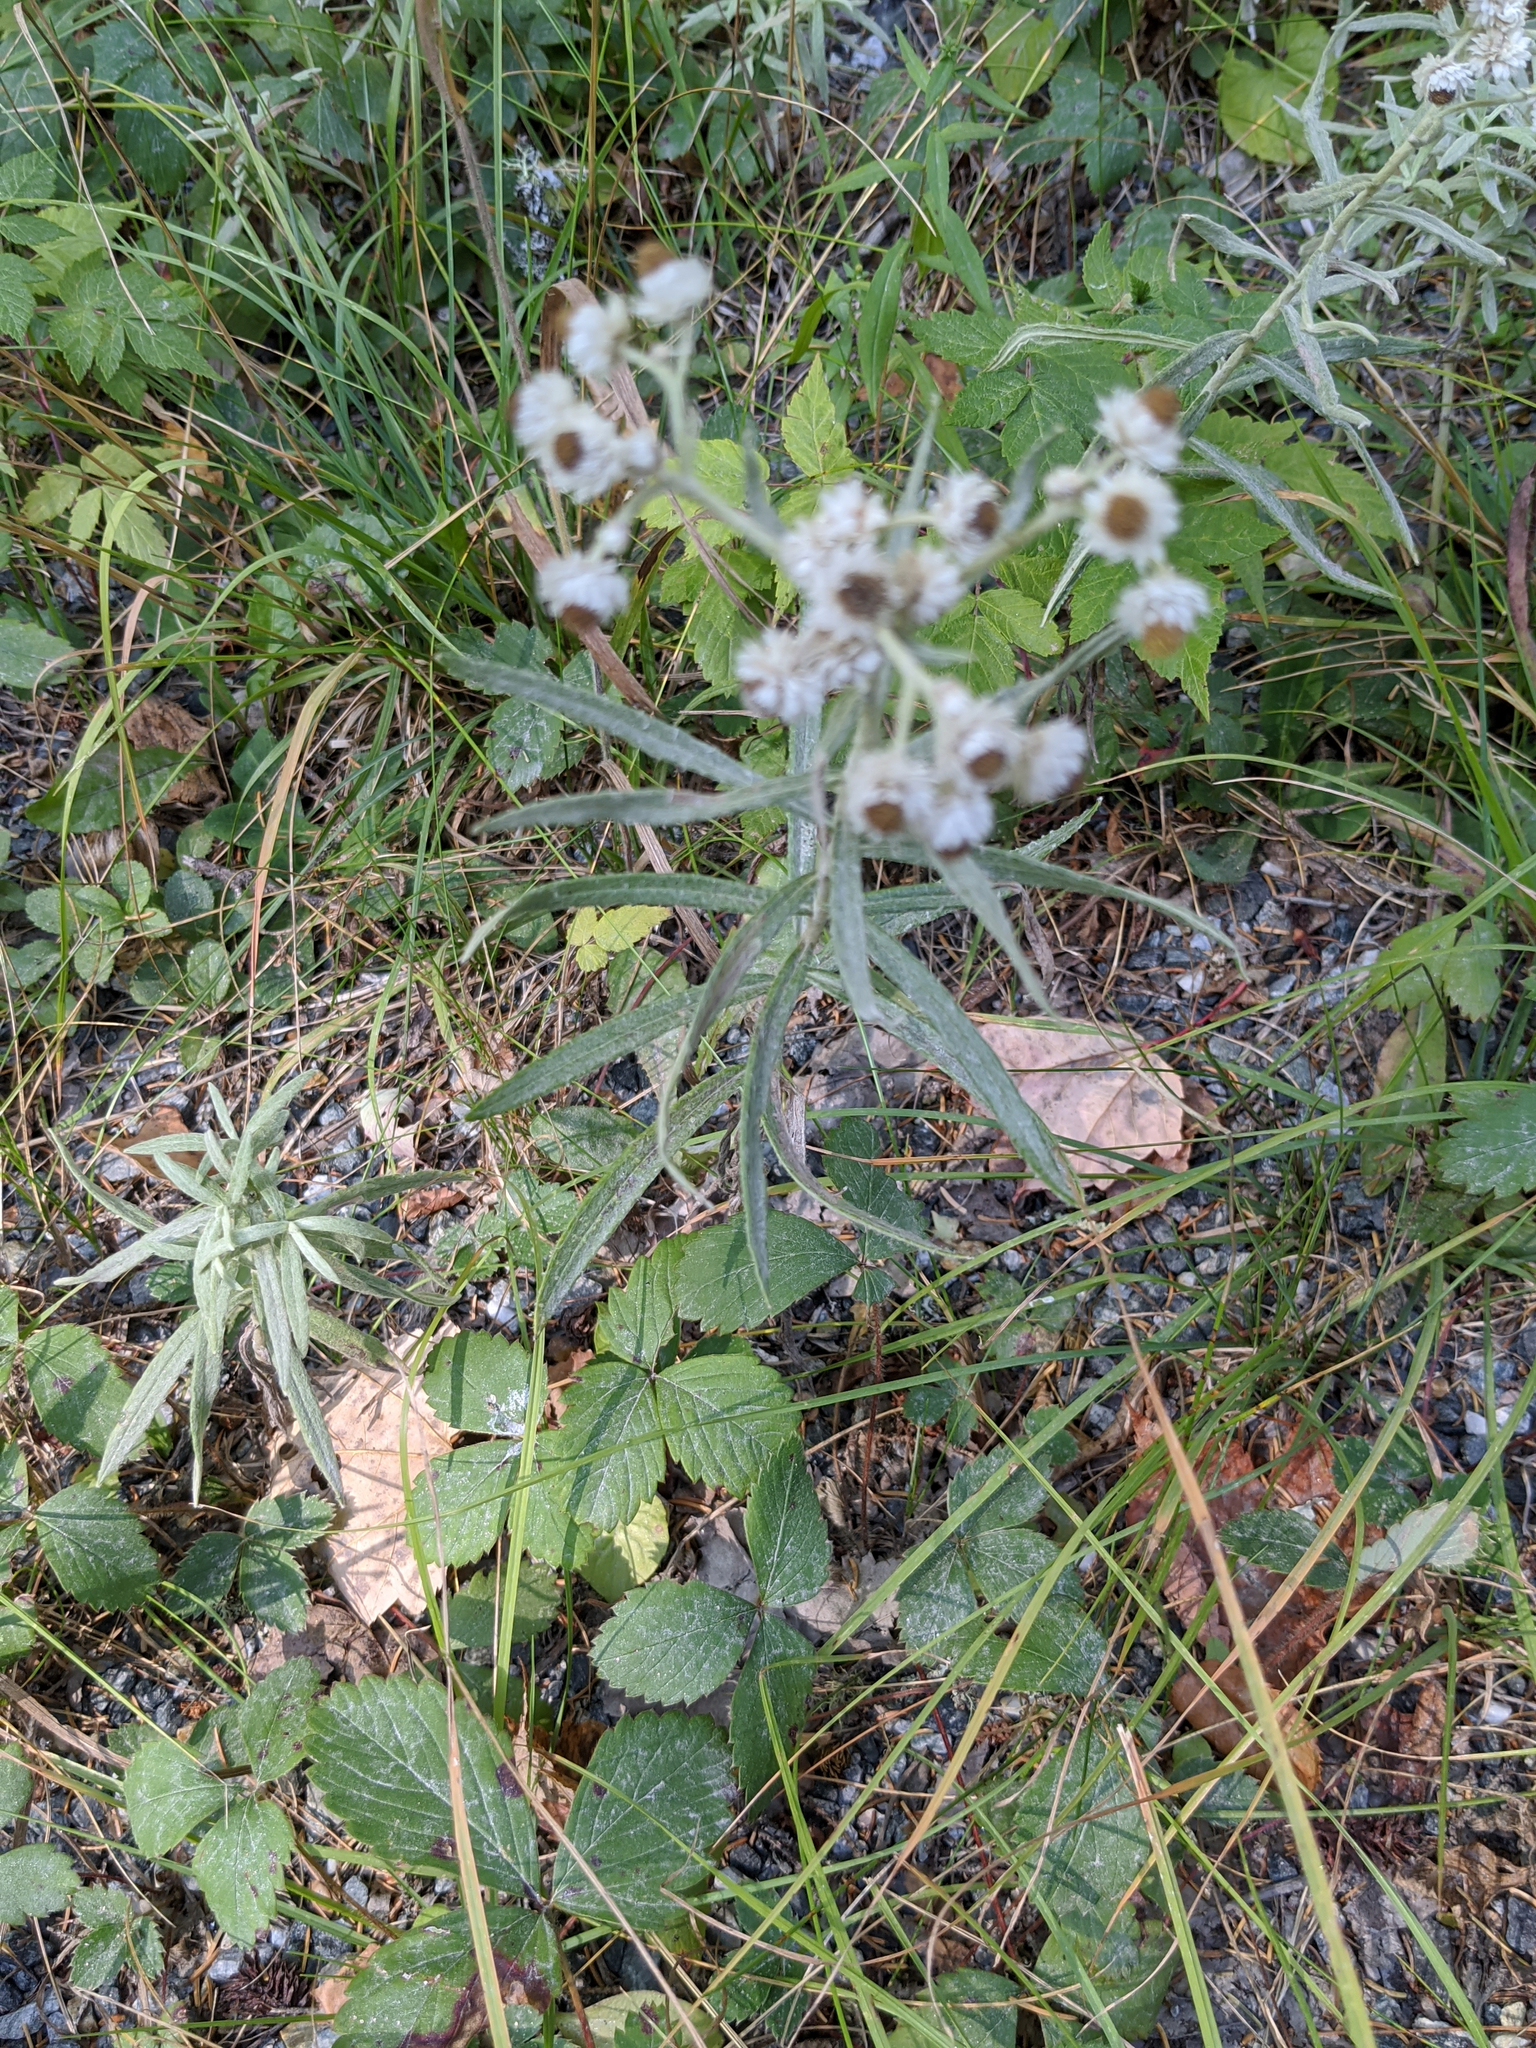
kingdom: Plantae
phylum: Tracheophyta
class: Magnoliopsida
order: Asterales
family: Asteraceae
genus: Anaphalis
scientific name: Anaphalis margaritacea
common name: Pearly everlasting
